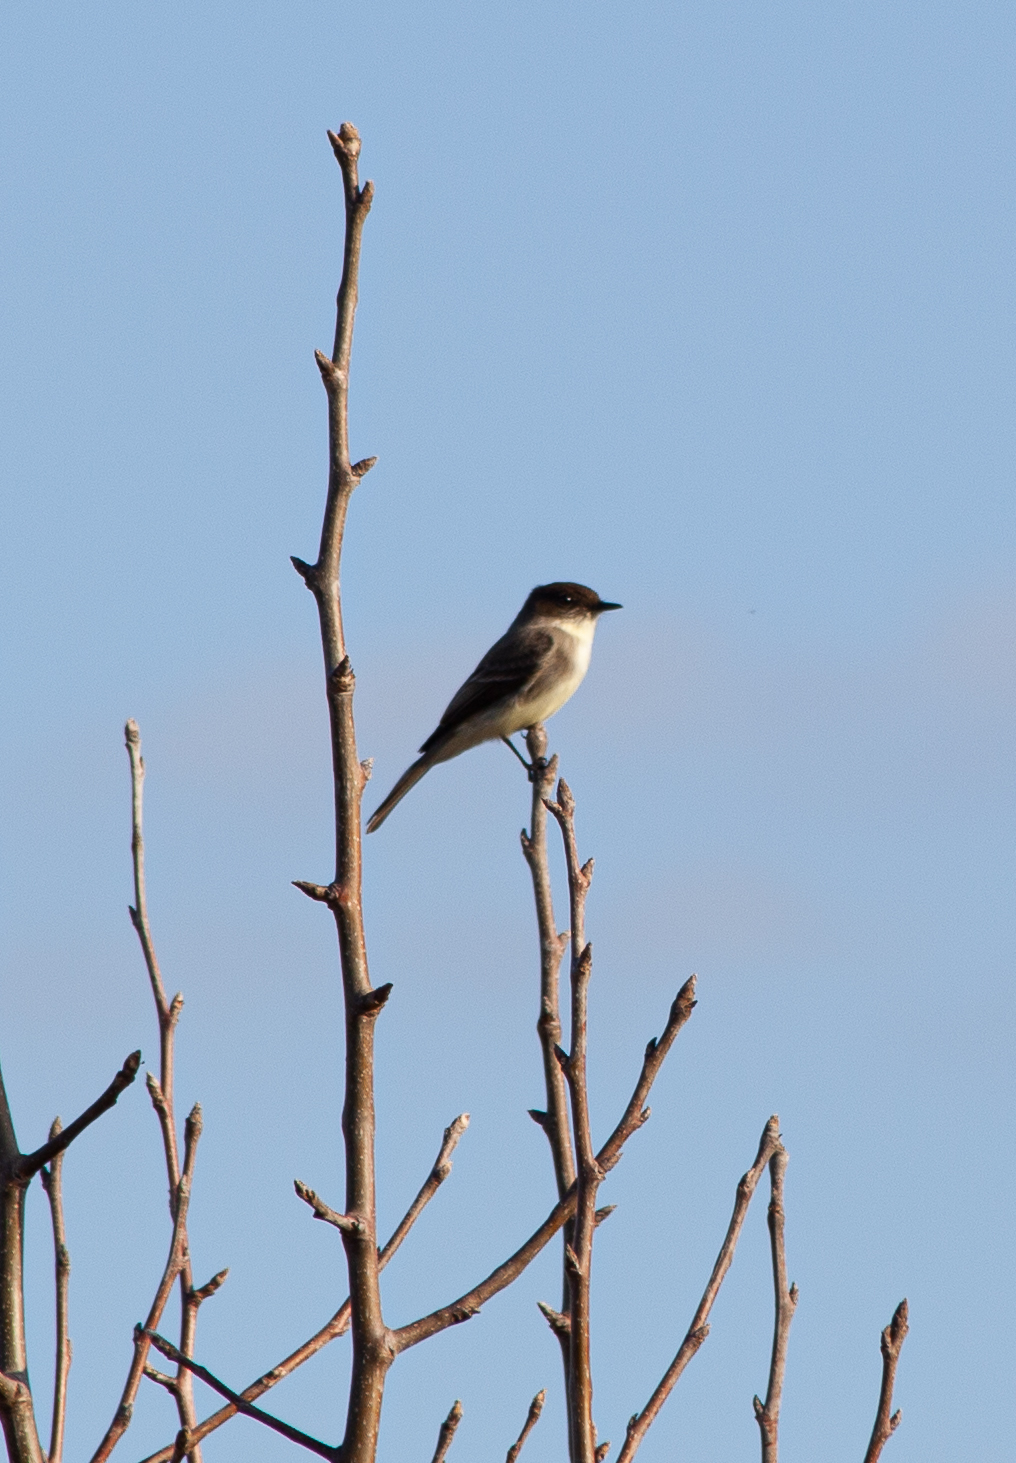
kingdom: Animalia
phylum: Chordata
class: Aves
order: Passeriformes
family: Tyrannidae
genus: Sayornis
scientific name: Sayornis phoebe
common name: Eastern phoebe
